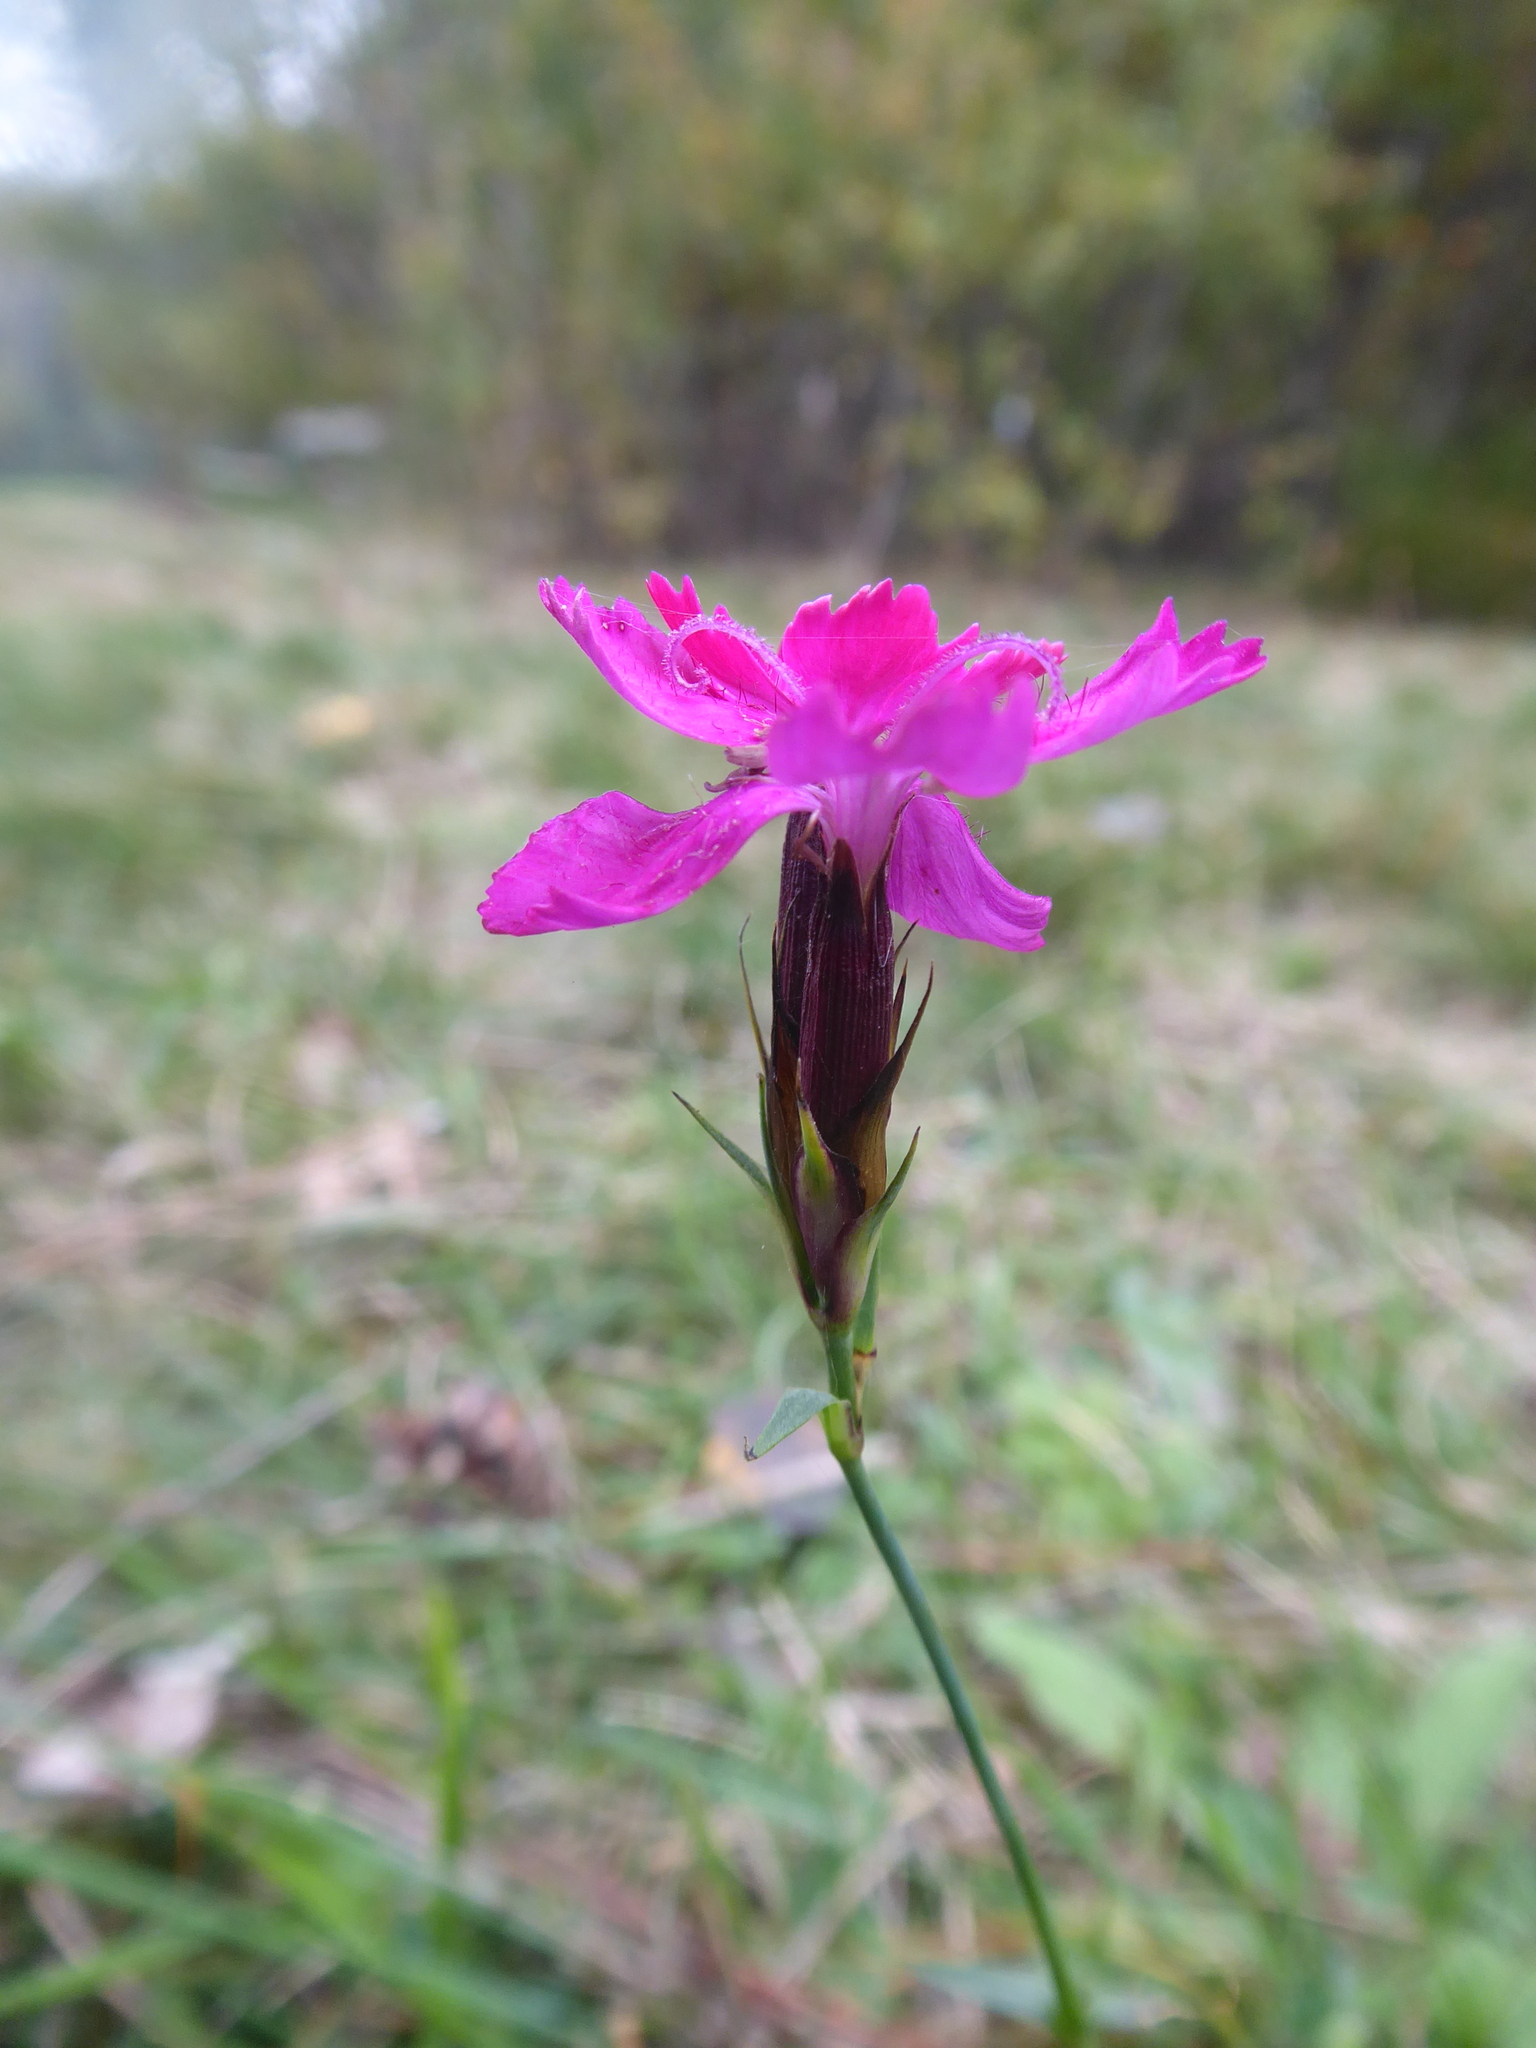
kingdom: Plantae
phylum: Tracheophyta
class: Magnoliopsida
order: Caryophyllales
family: Caryophyllaceae
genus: Dianthus
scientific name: Dianthus carthusianorum
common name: Carthusian pink
